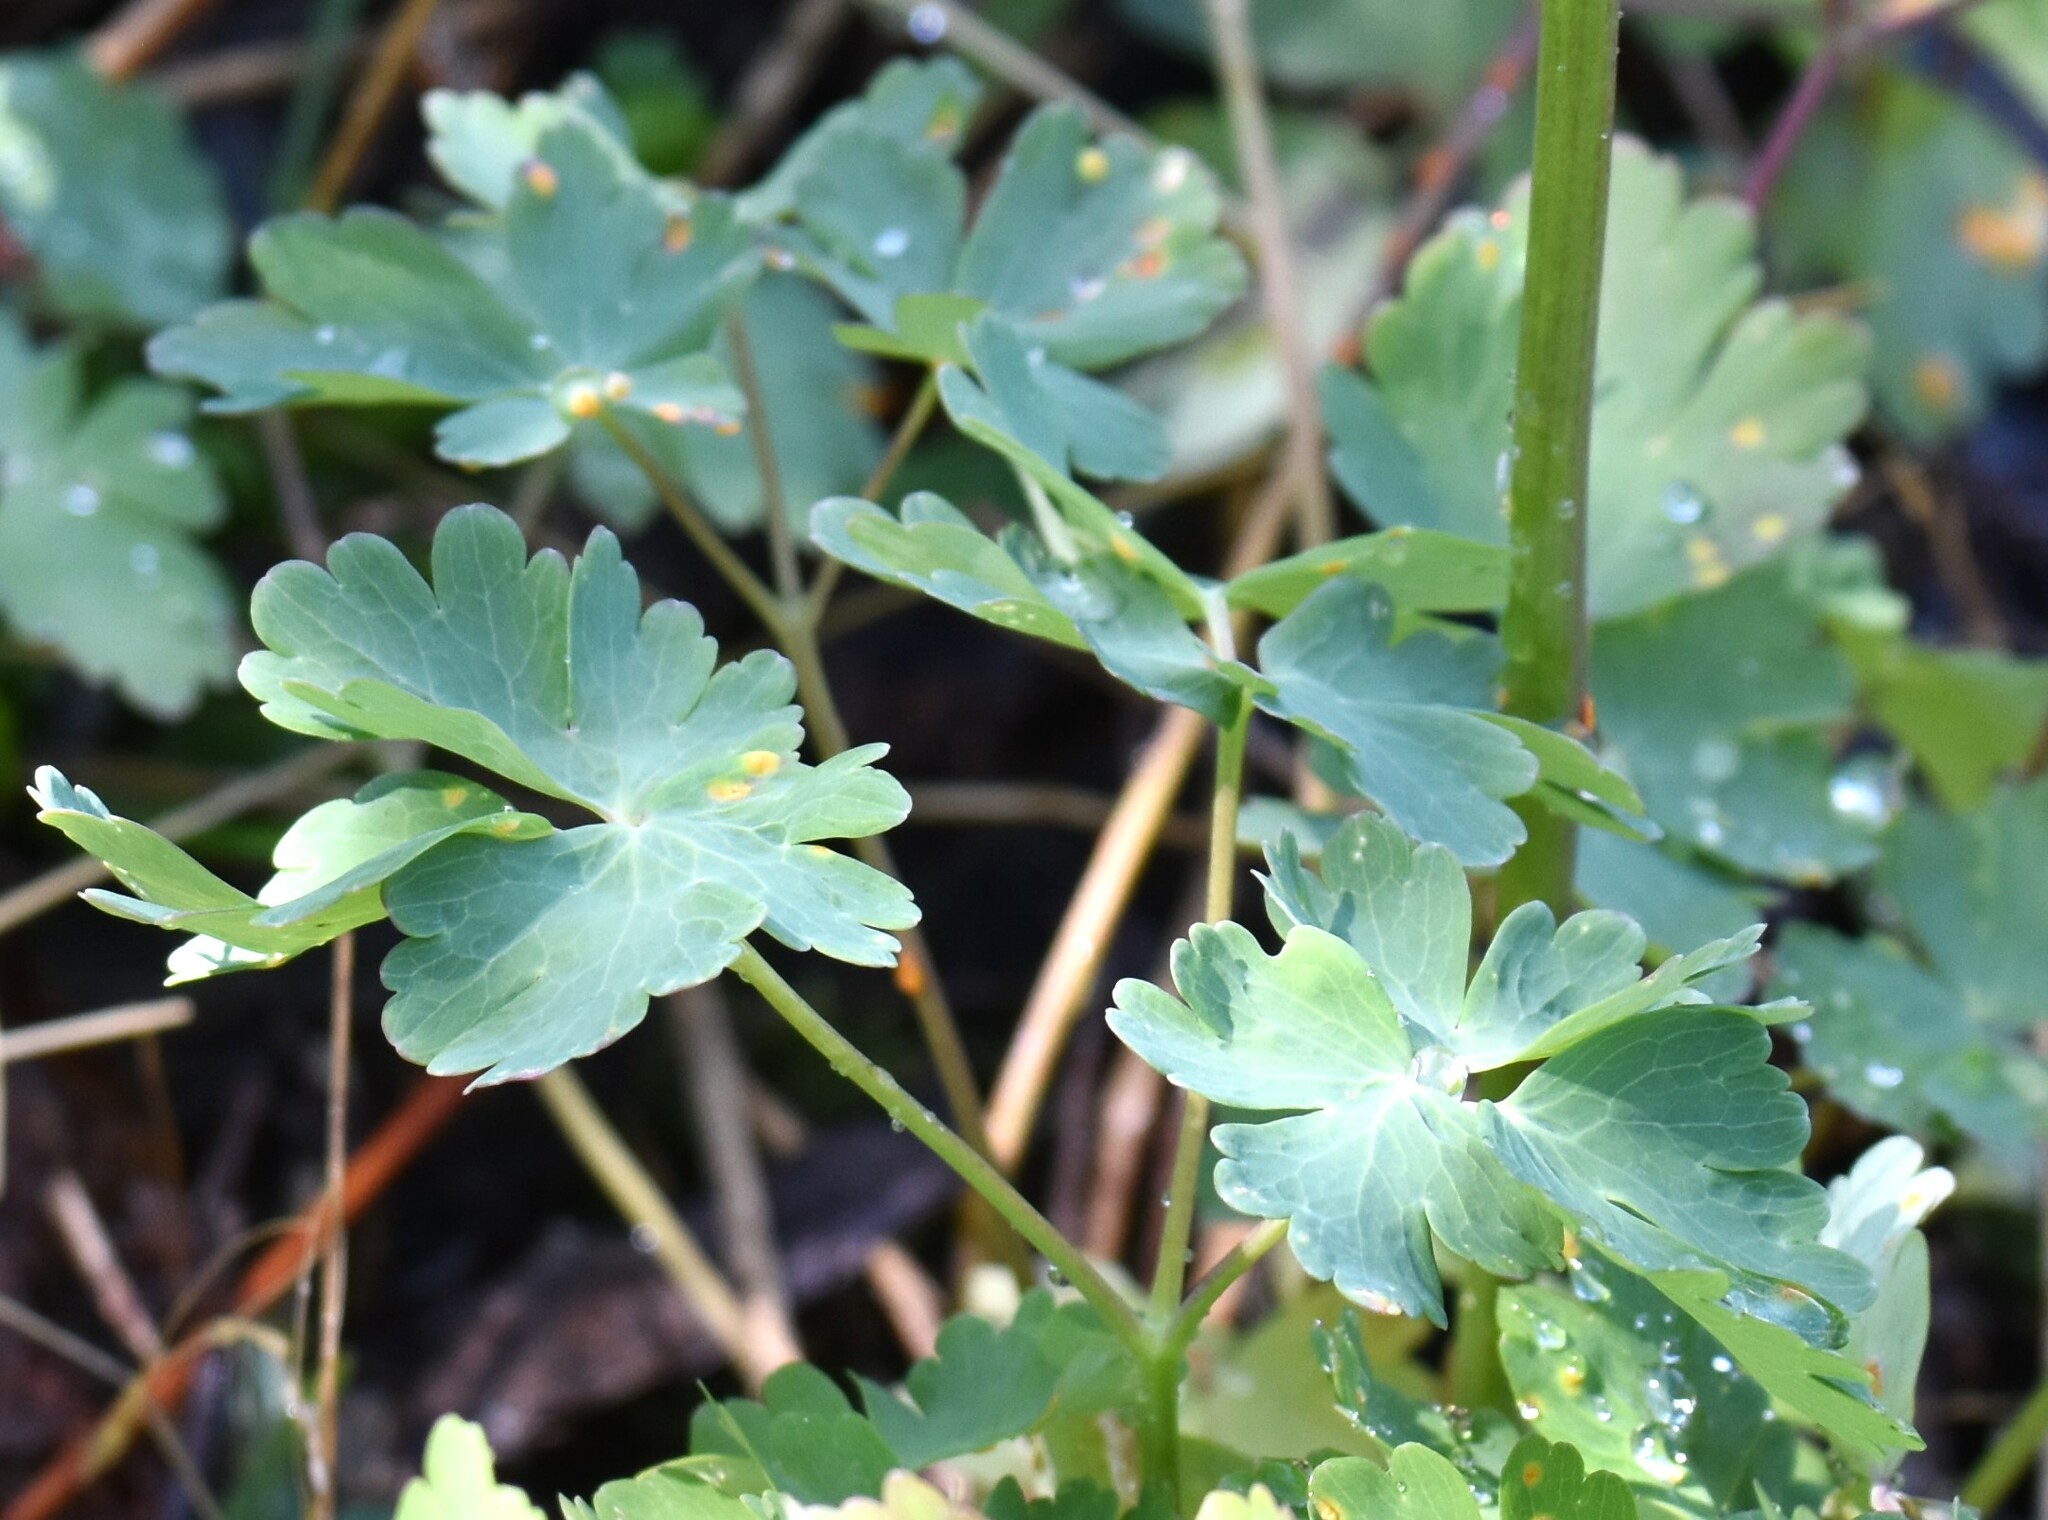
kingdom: Plantae
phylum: Tracheophyta
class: Magnoliopsida
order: Ranunculales
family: Ranunculaceae
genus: Aquilegia
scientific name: Aquilegia formosa
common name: Sitka columbine
